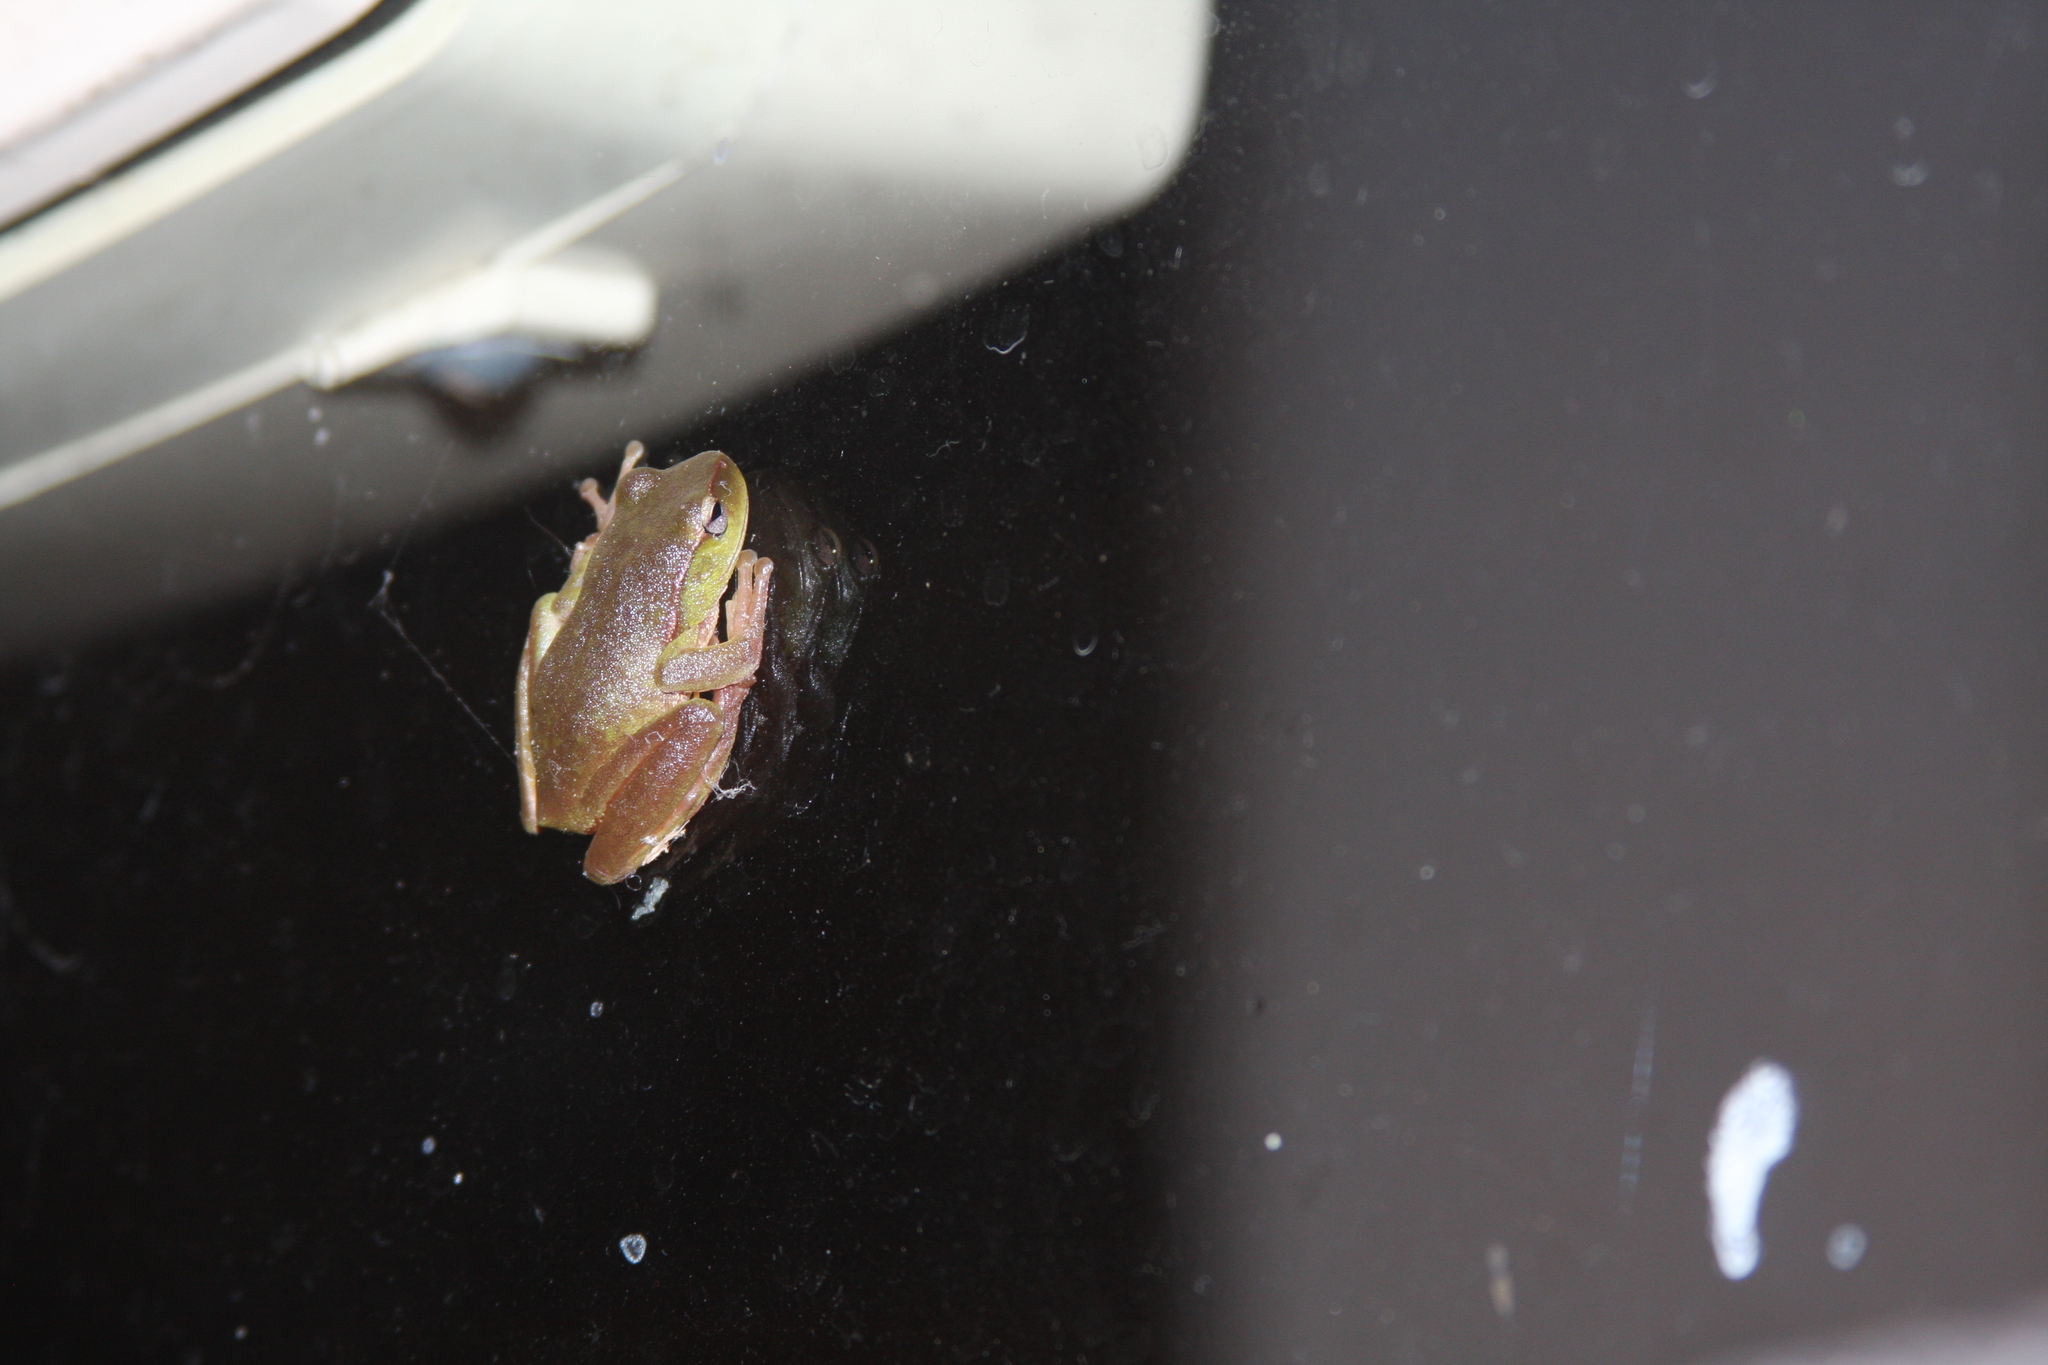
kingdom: Animalia
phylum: Chordata
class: Amphibia
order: Anura
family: Pelodryadidae
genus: Ranoidea
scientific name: Ranoidea phyllochroa
